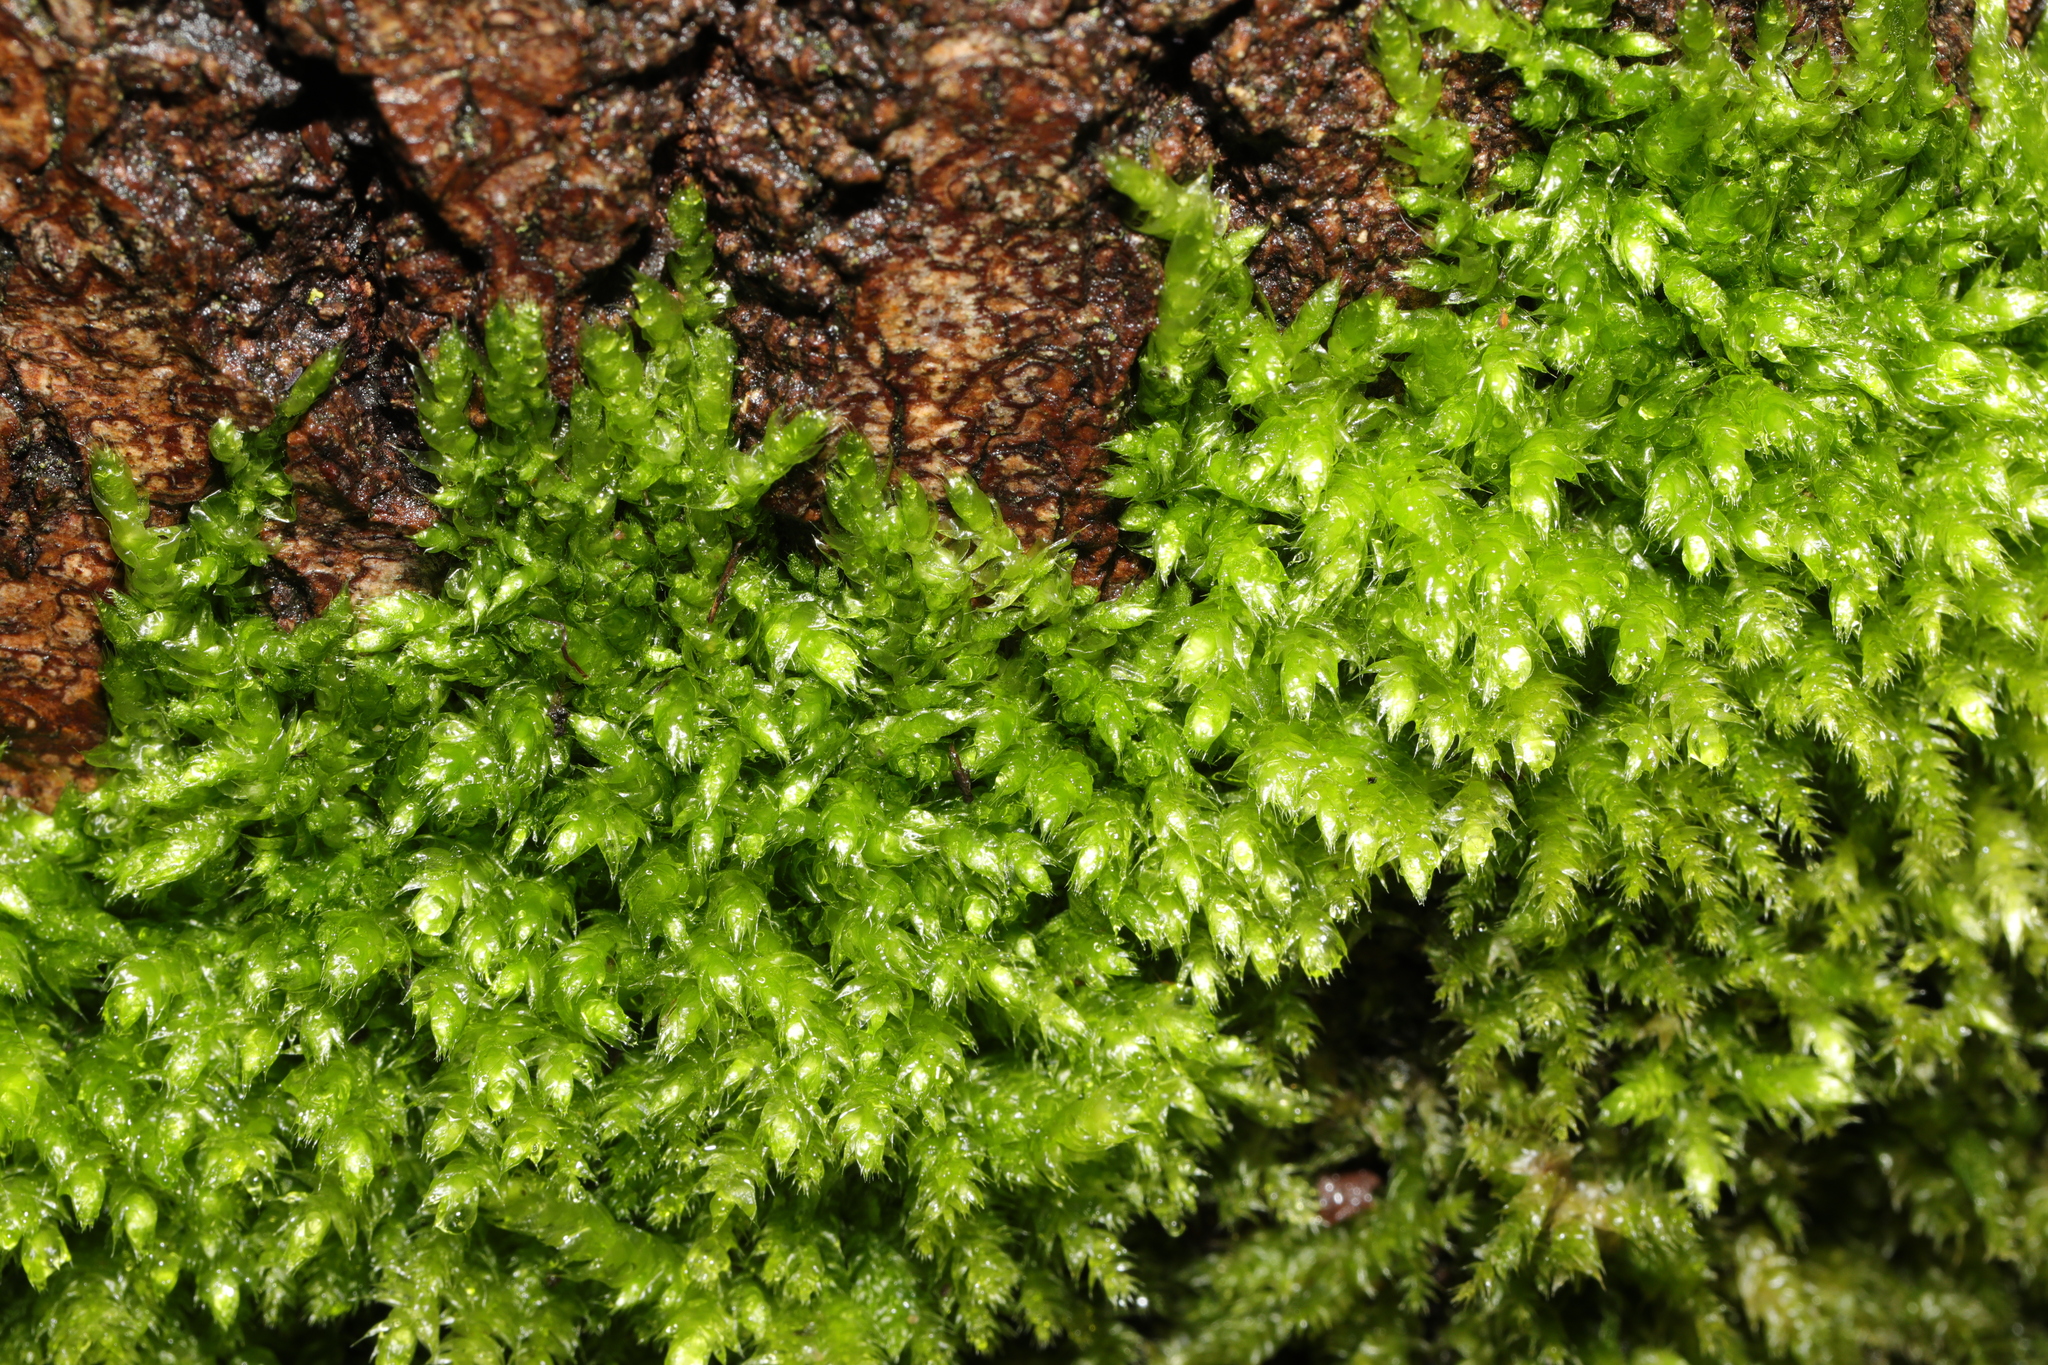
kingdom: Plantae
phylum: Bryophyta
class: Bryopsida
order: Hypnales
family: Brachytheciaceae
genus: Brachythecium
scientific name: Brachythecium rutabulum
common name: Rough-stalked feather-moss
